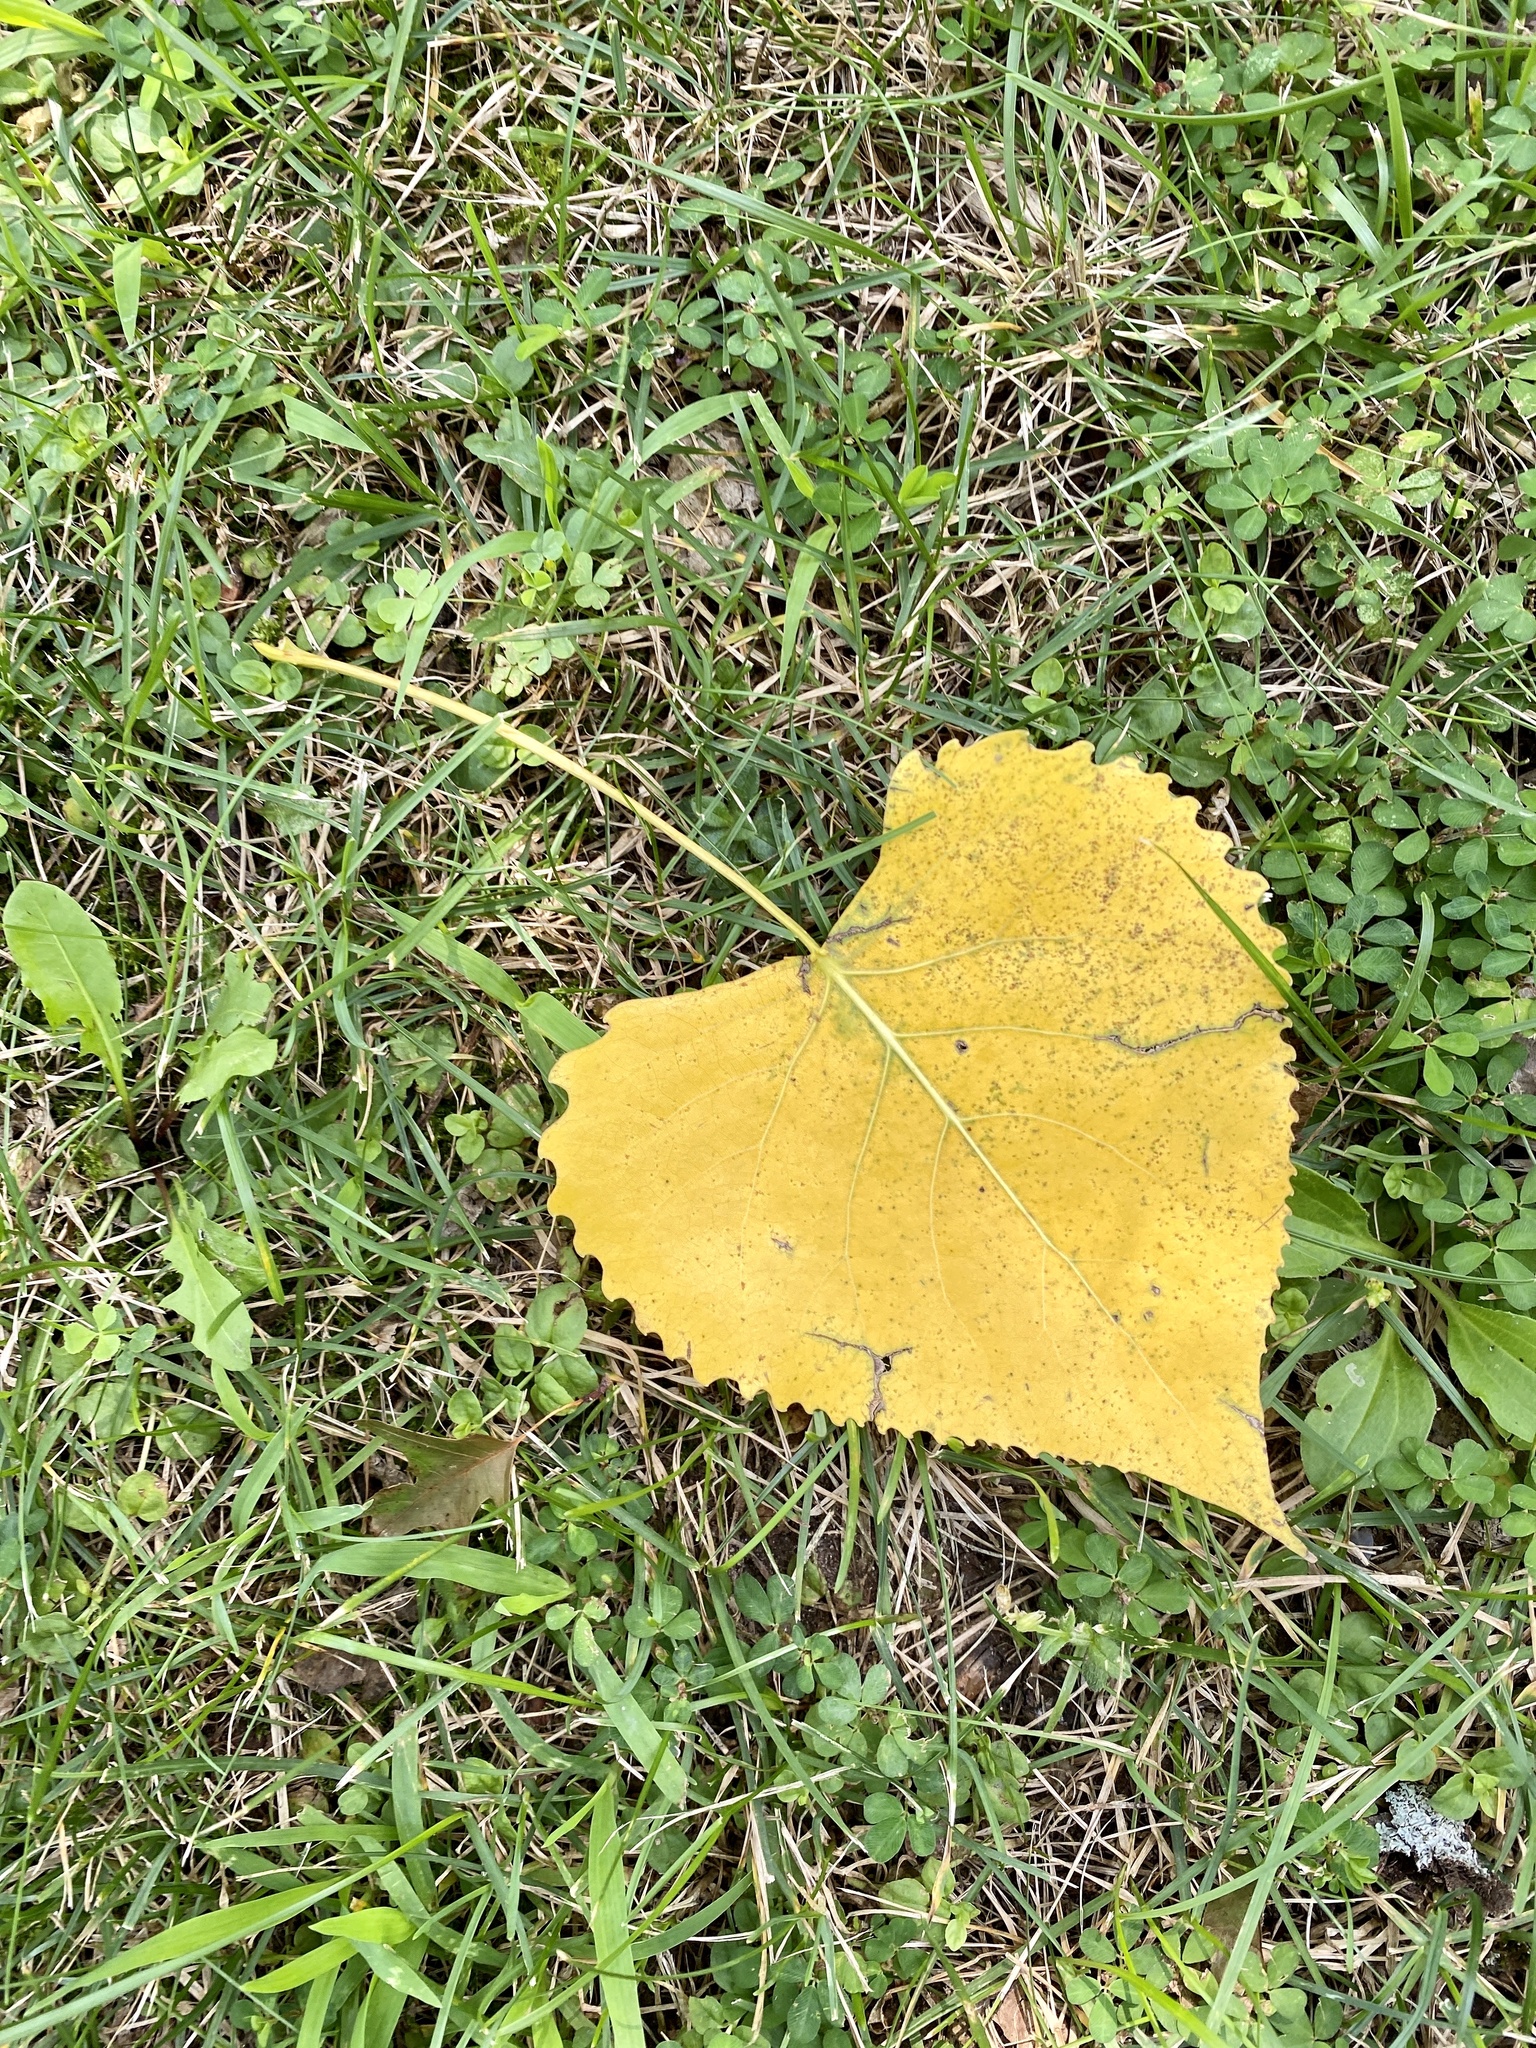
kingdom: Plantae
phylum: Tracheophyta
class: Magnoliopsida
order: Malpighiales
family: Salicaceae
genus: Populus
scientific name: Populus deltoides
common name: Eastern cottonwood
